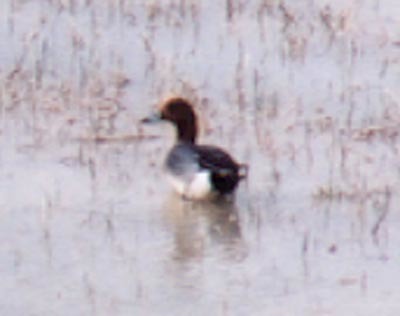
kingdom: Animalia
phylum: Chordata
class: Aves
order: Anseriformes
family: Anatidae
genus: Mareca
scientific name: Mareca penelope
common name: Eurasian wigeon
